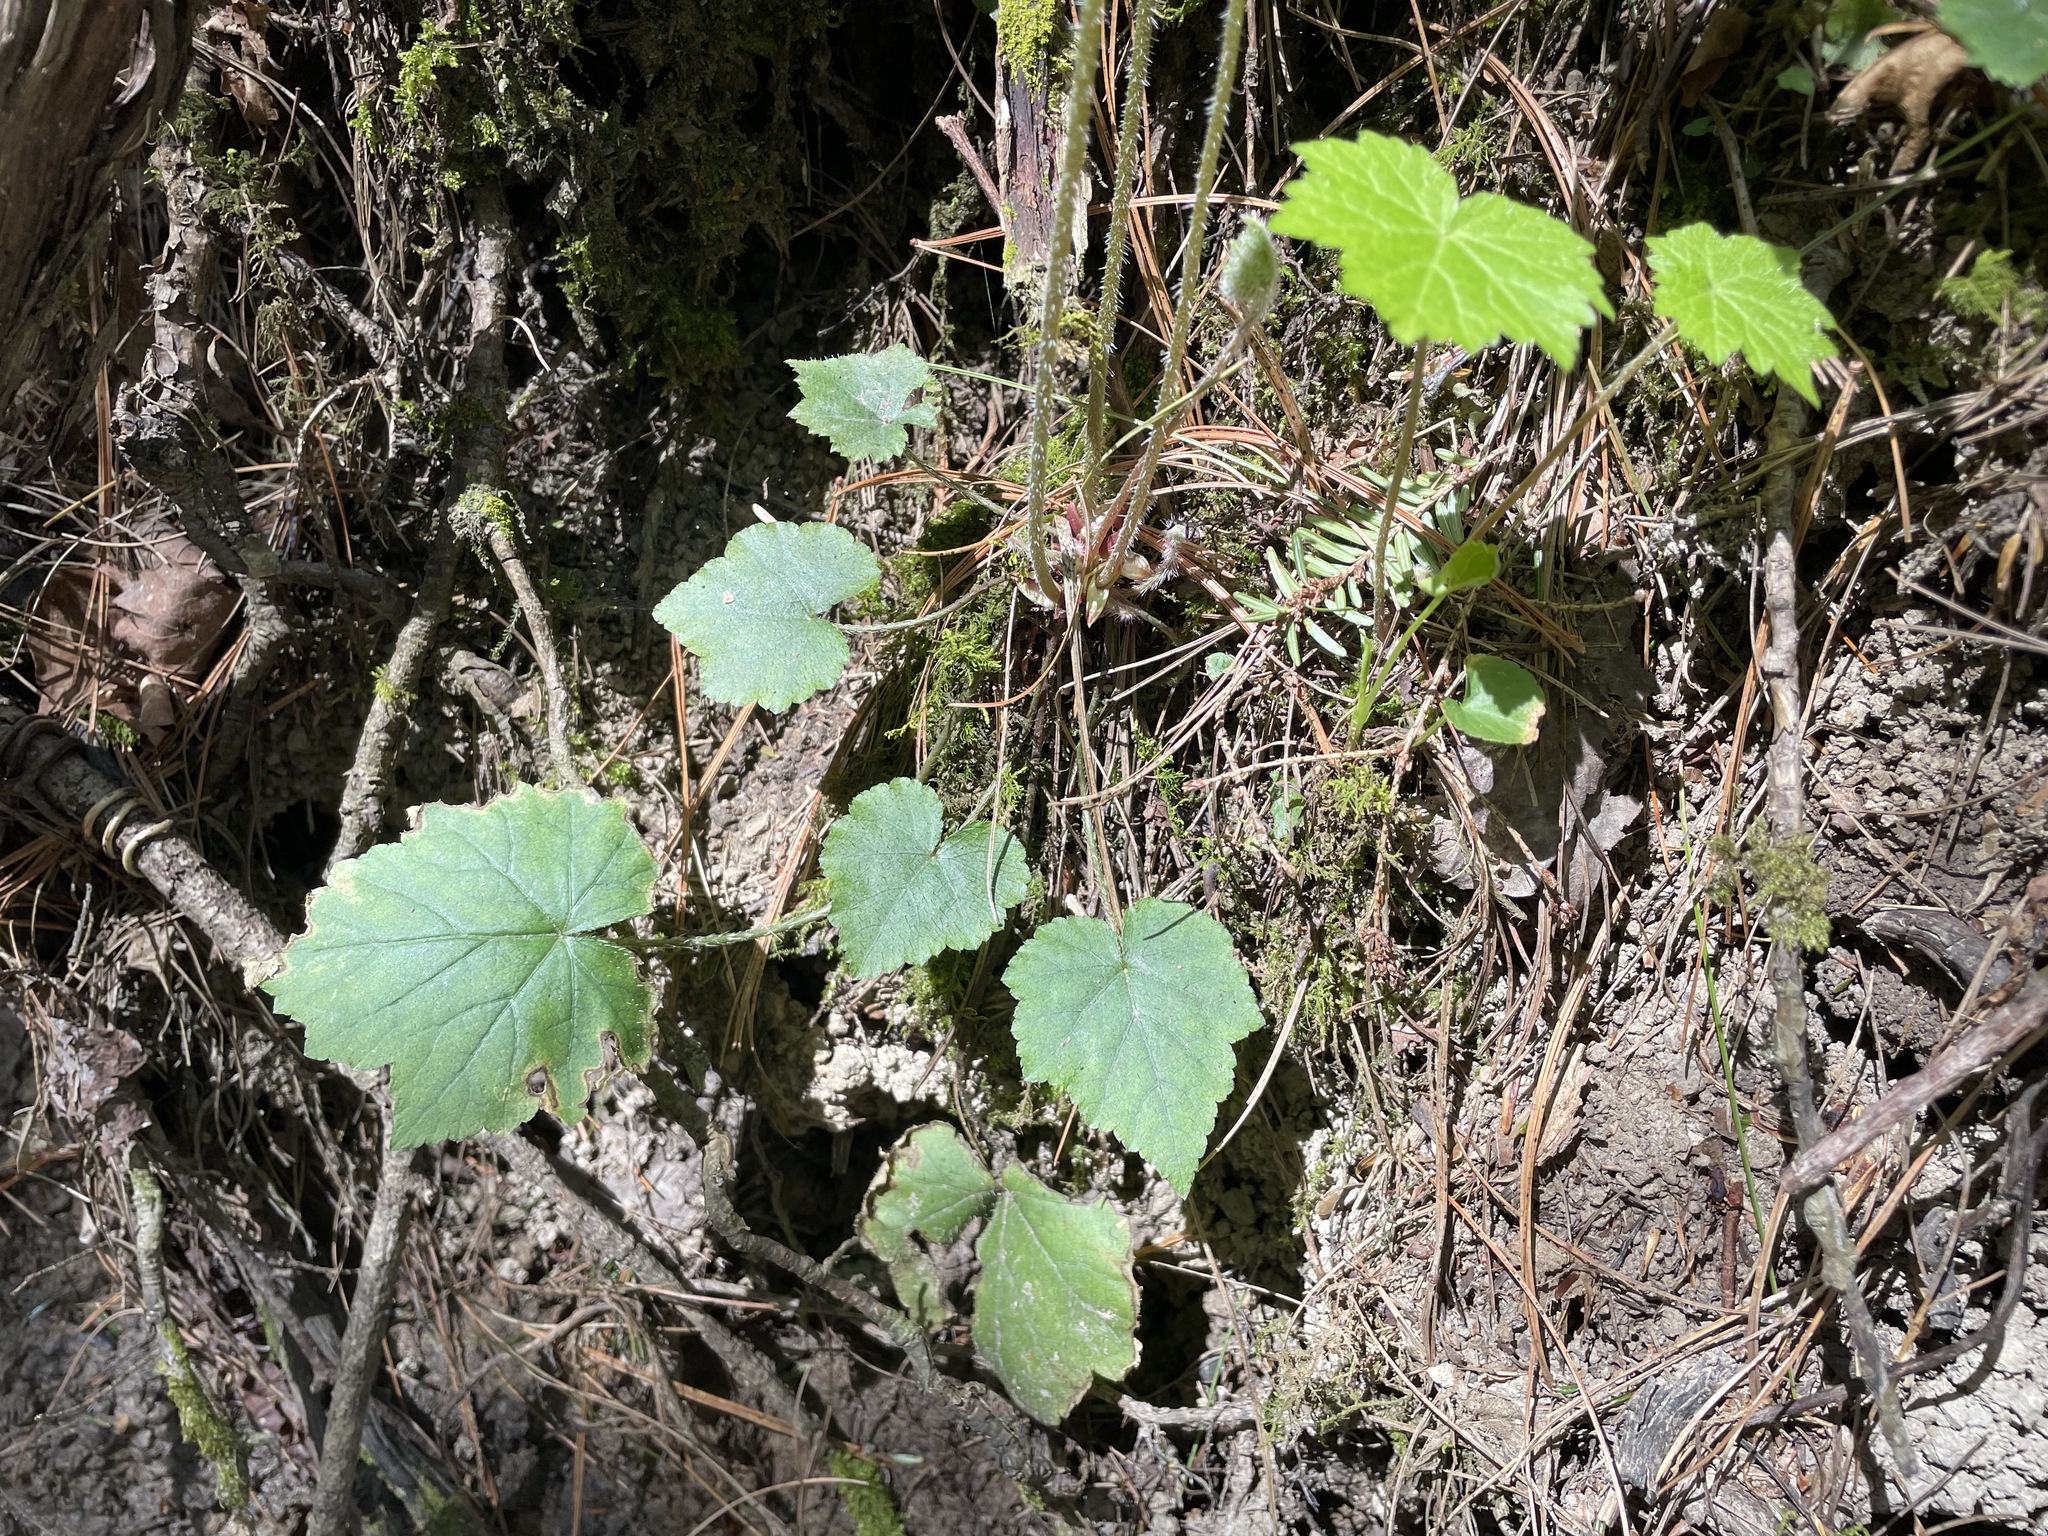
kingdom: Plantae
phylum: Tracheophyta
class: Magnoliopsida
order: Saxifragales
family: Saxifragaceae
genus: Mitella
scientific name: Mitella diphylla
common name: Coolwort
